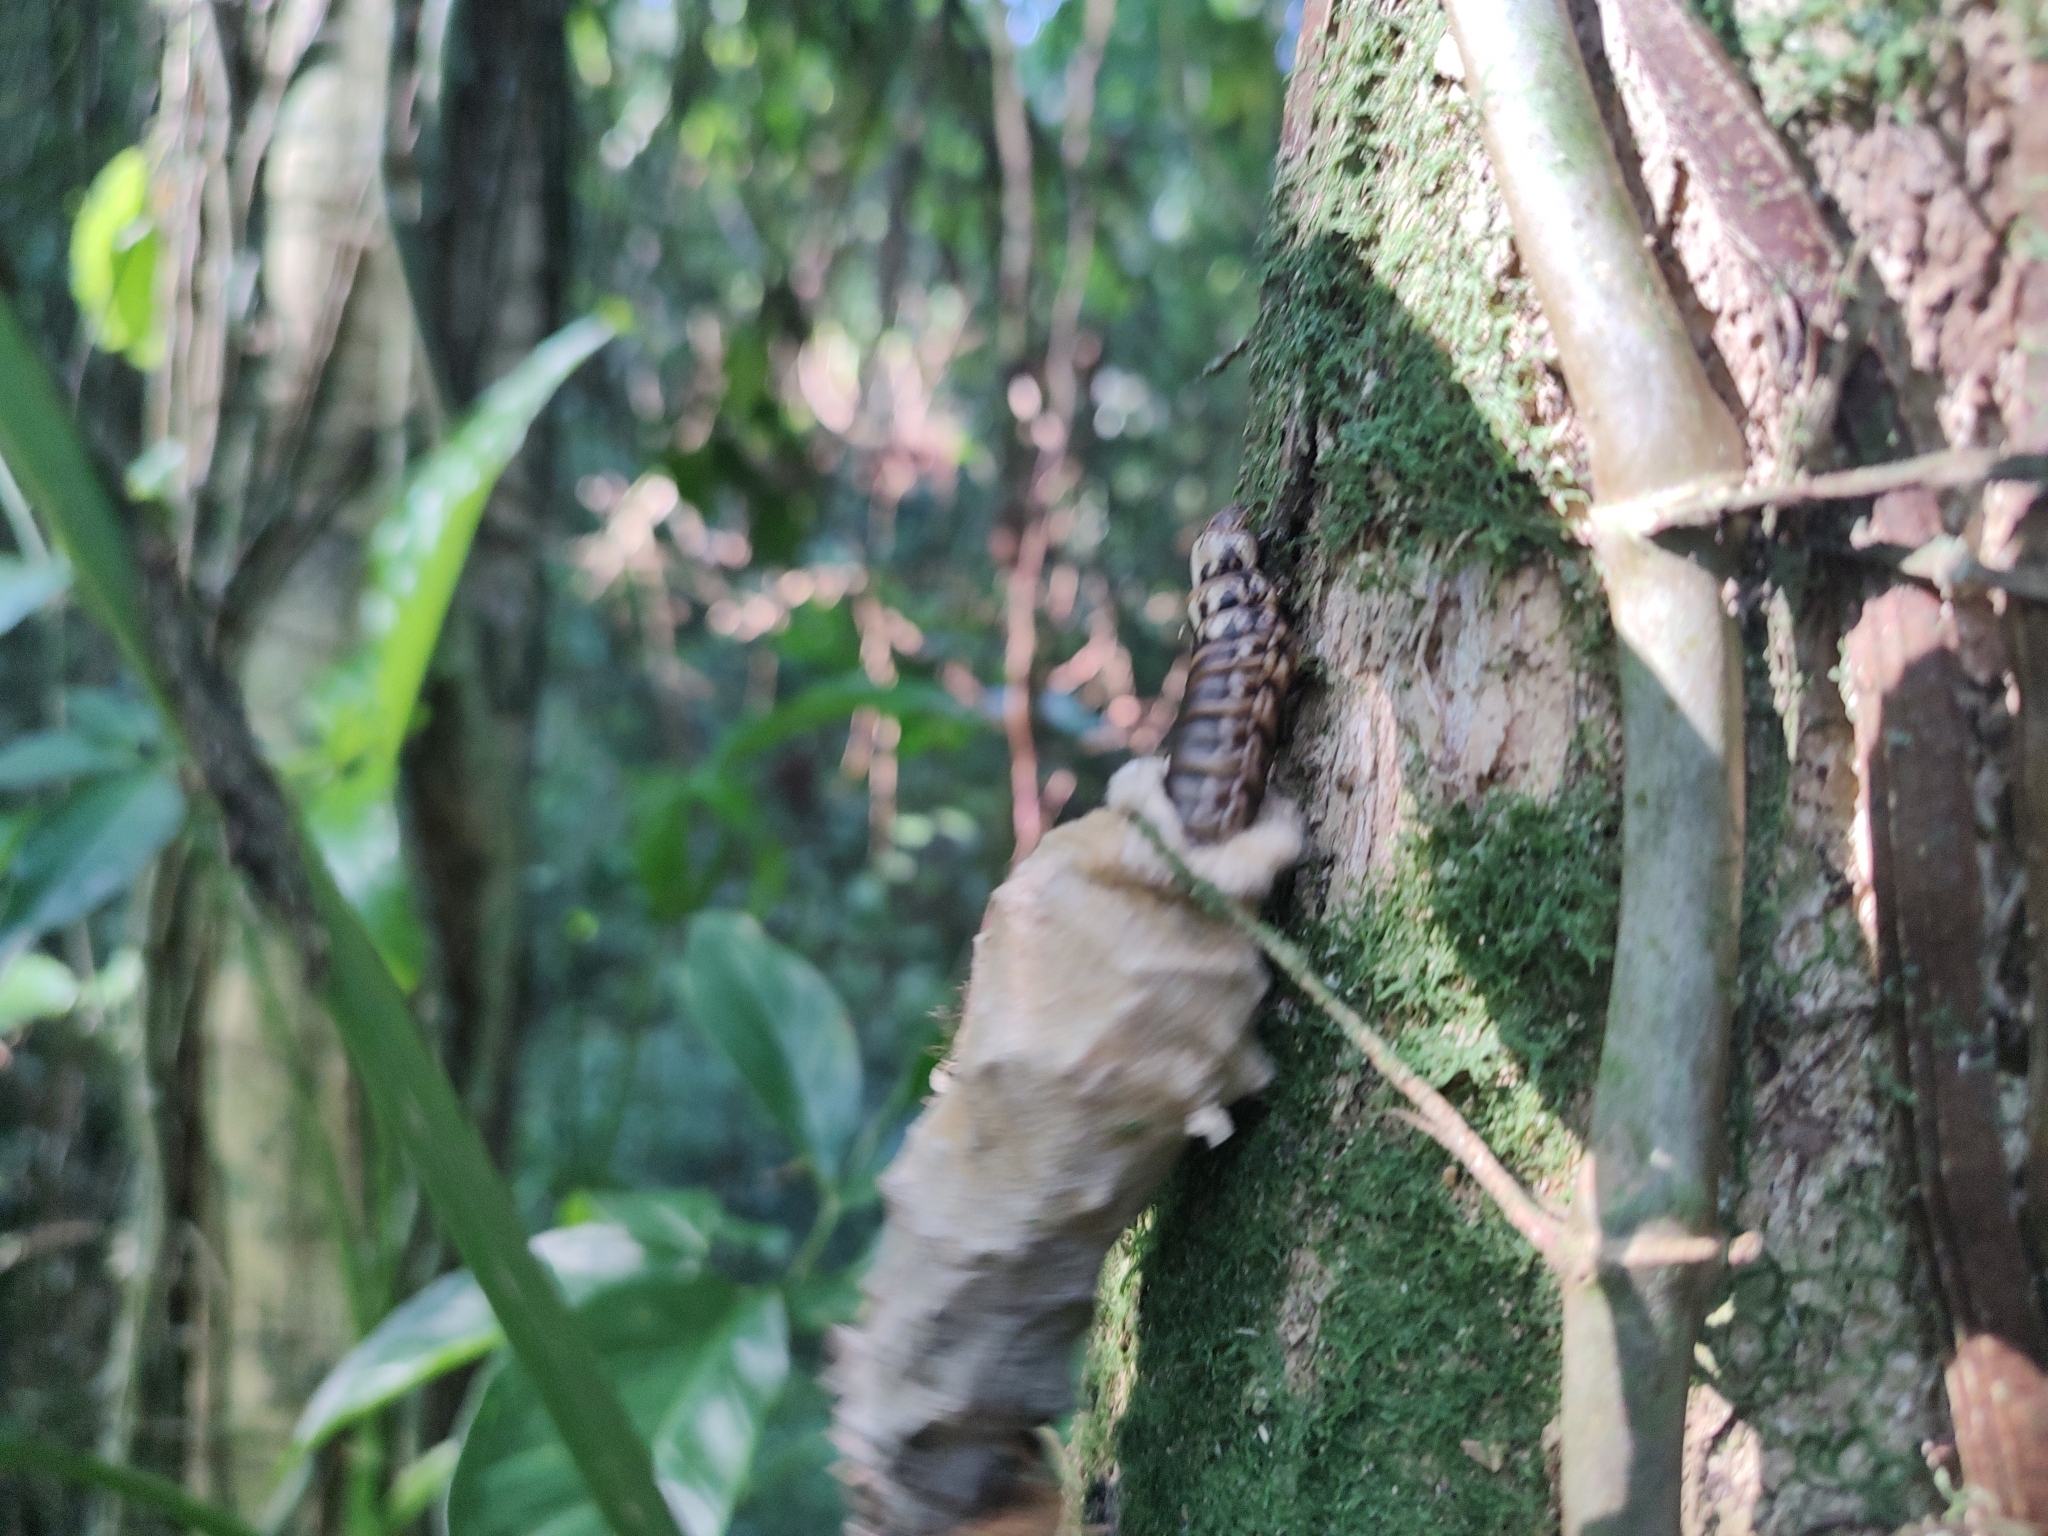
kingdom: Animalia
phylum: Arthropoda
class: Insecta
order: Lepidoptera
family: Psychidae
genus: Oiketicus
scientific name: Oiketicus
